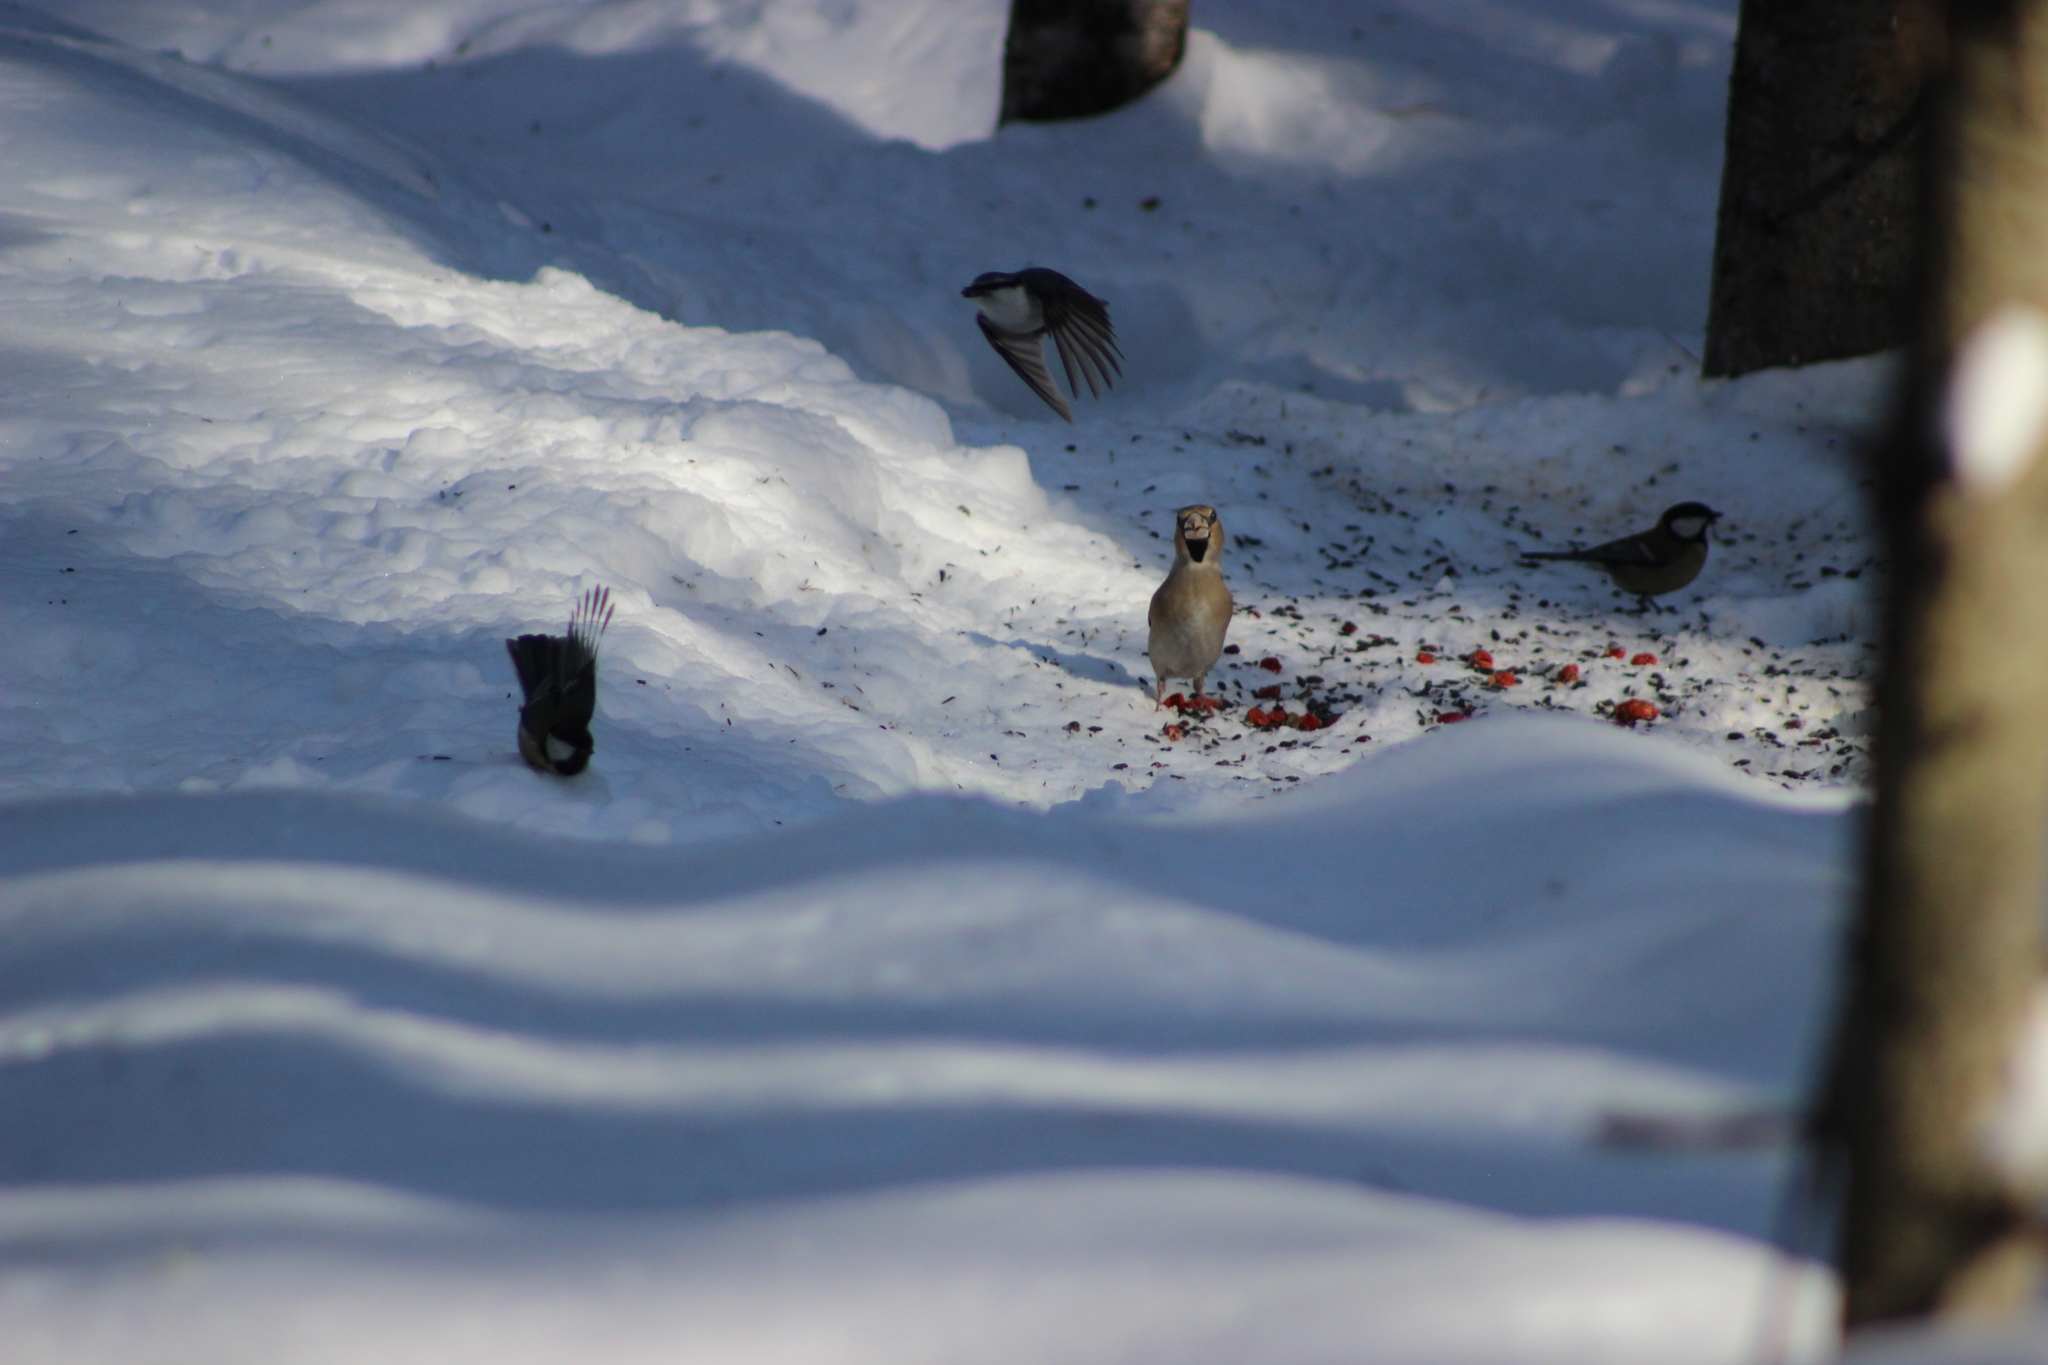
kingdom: Animalia
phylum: Chordata
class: Aves
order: Passeriformes
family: Fringillidae
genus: Coccothraustes
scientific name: Coccothraustes coccothraustes
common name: Hawfinch
